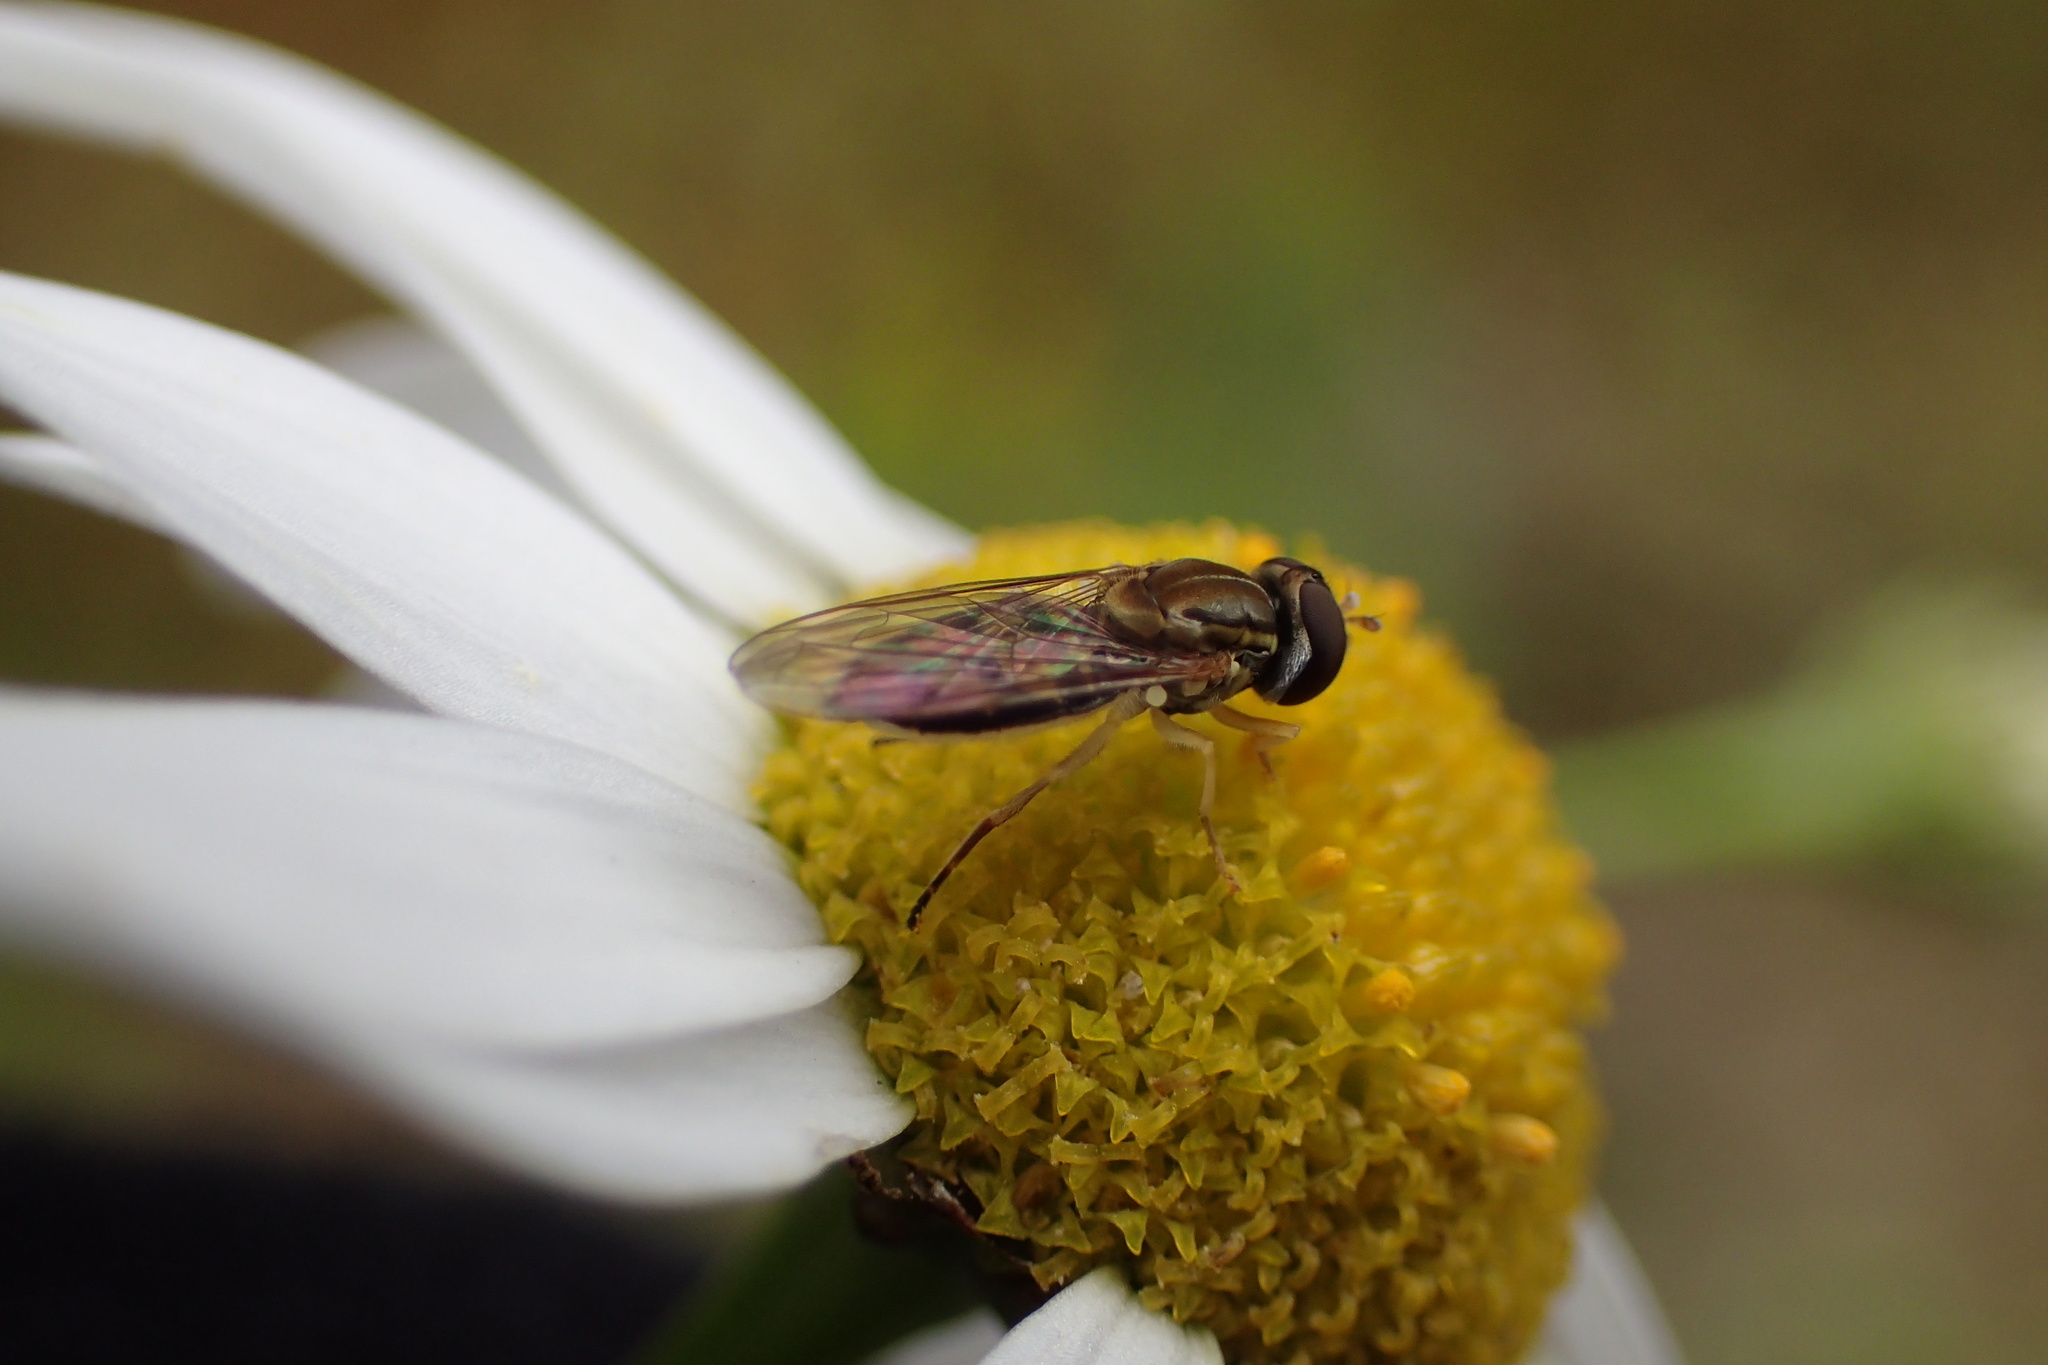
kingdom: Animalia
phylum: Arthropoda
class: Insecta
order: Diptera
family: Syrphidae
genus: Toxomerus
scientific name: Toxomerus marginatus
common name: Syrphid fly
